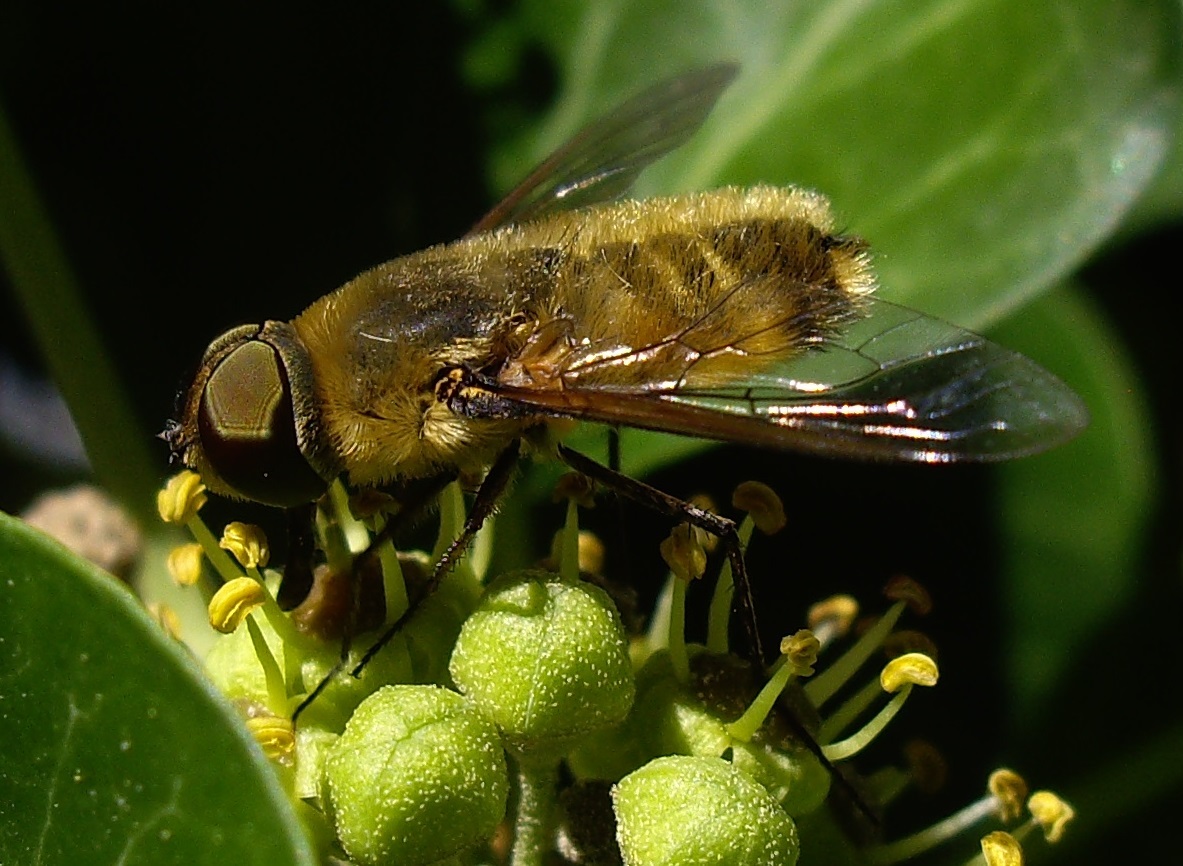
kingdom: Animalia
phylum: Arthropoda
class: Insecta
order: Diptera
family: Bombyliidae
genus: Villa
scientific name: Villa
